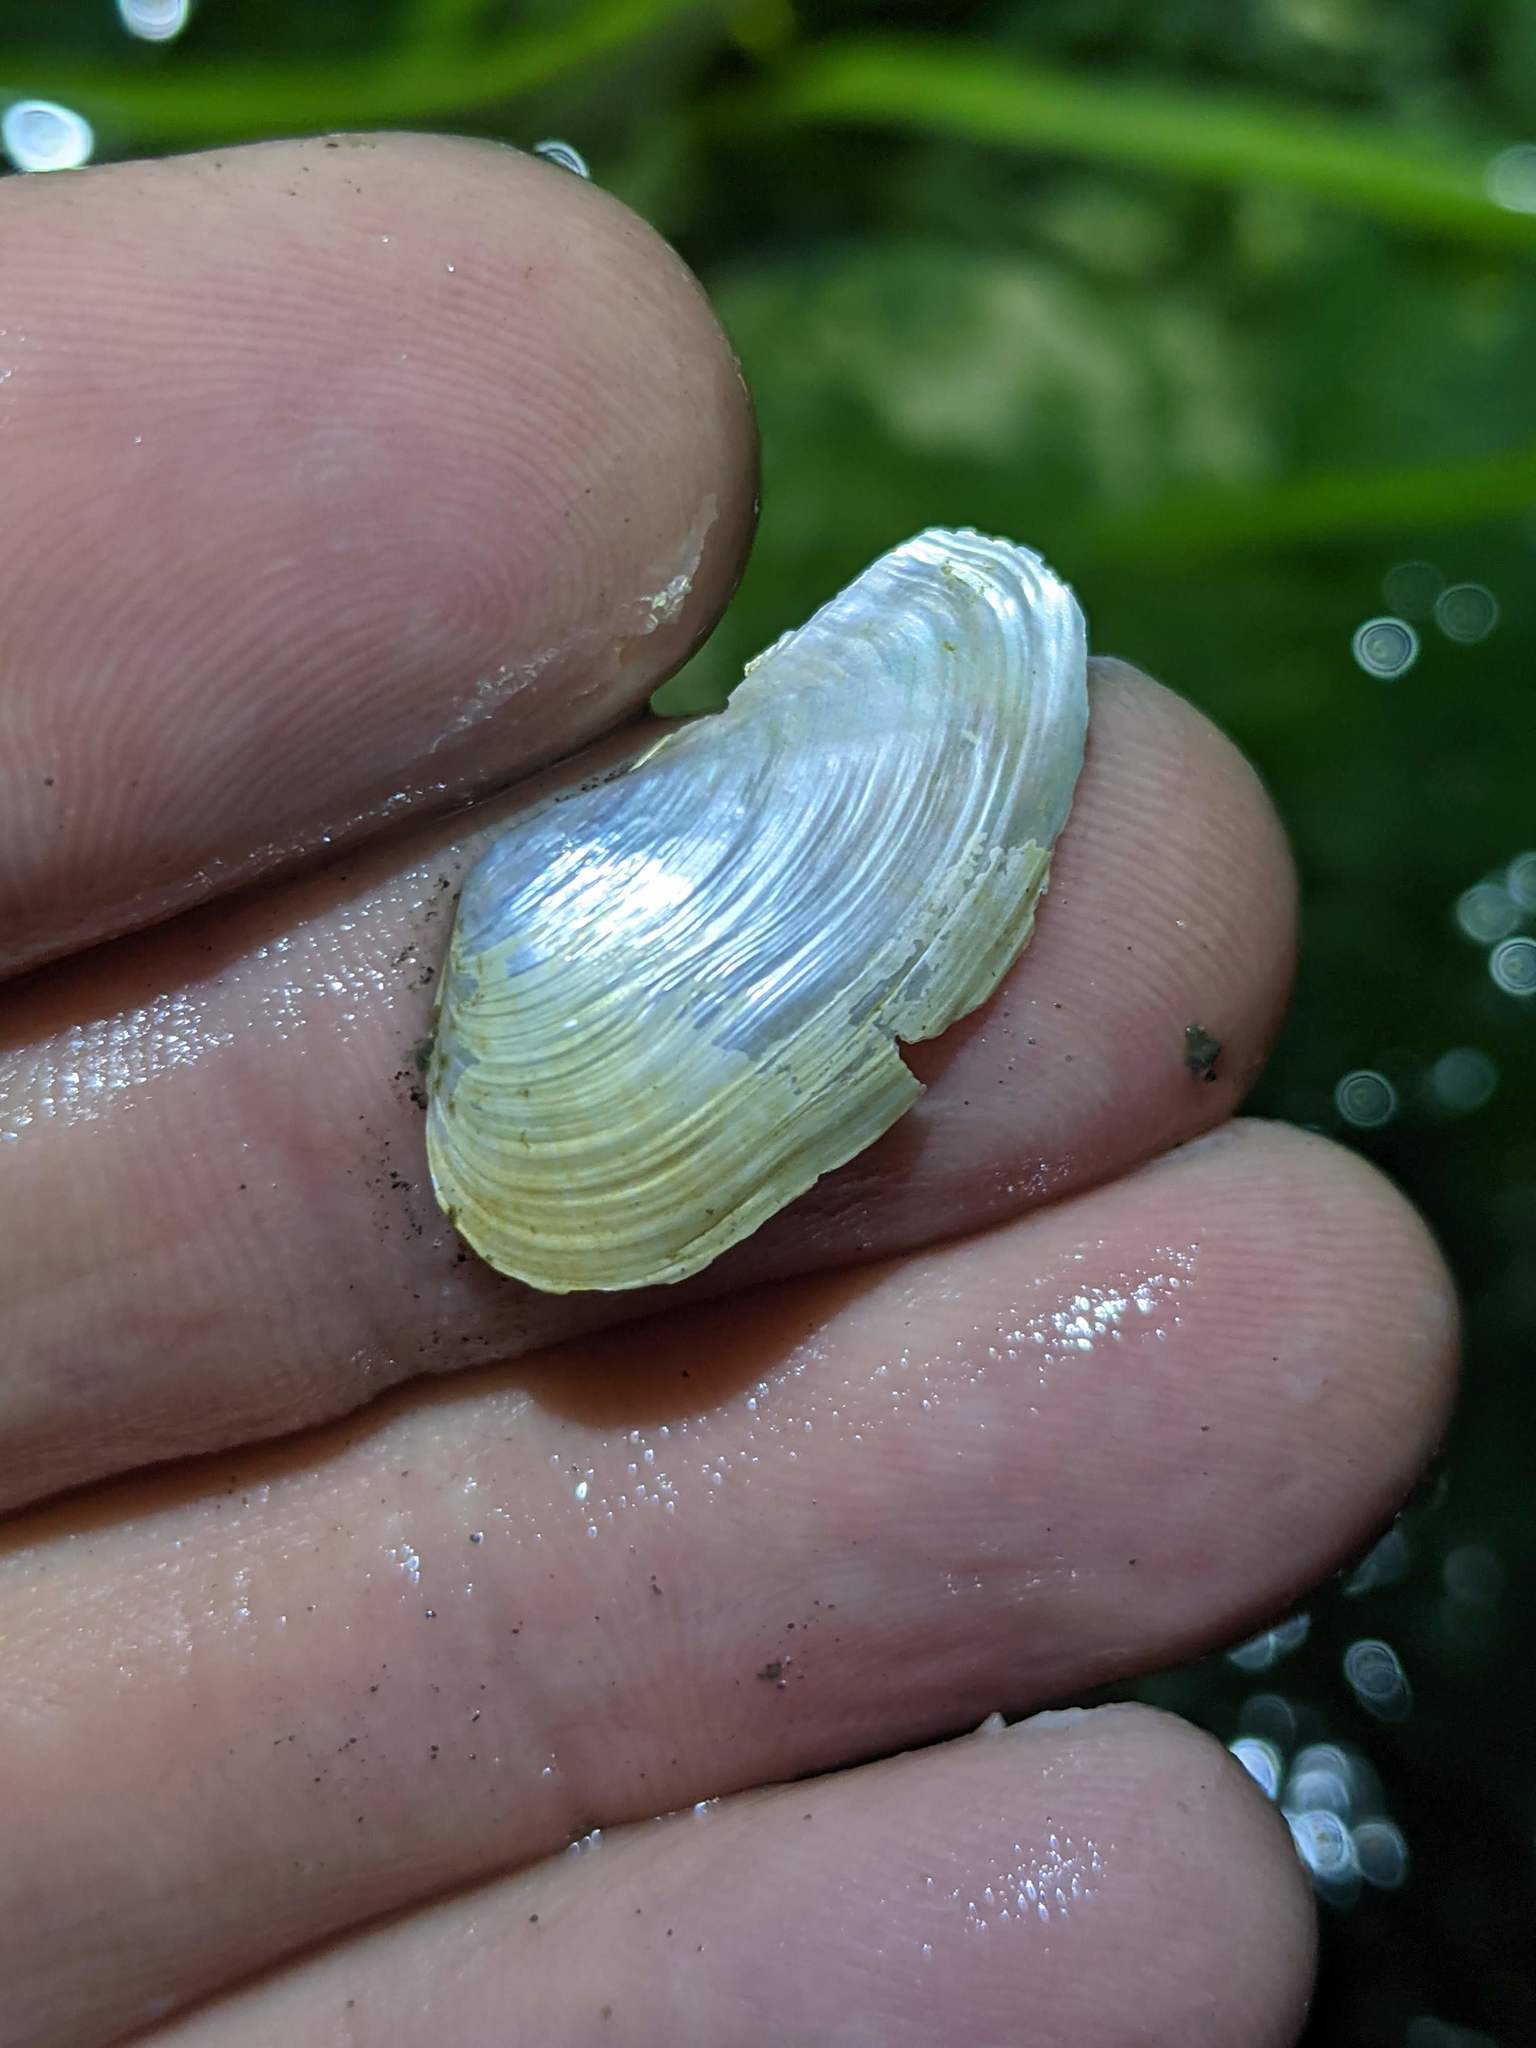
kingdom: Animalia
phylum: Mollusca
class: Bivalvia
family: Lyonsiidae
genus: Lyonsia
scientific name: Lyonsia californica
